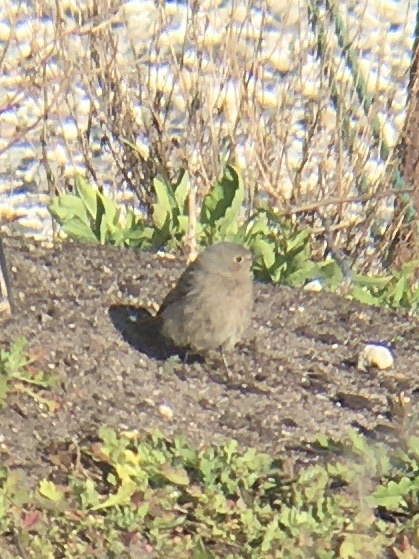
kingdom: Animalia
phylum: Chordata
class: Aves
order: Passeriformes
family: Muscicapidae
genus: Phoenicurus
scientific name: Phoenicurus ochruros
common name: Black redstart
